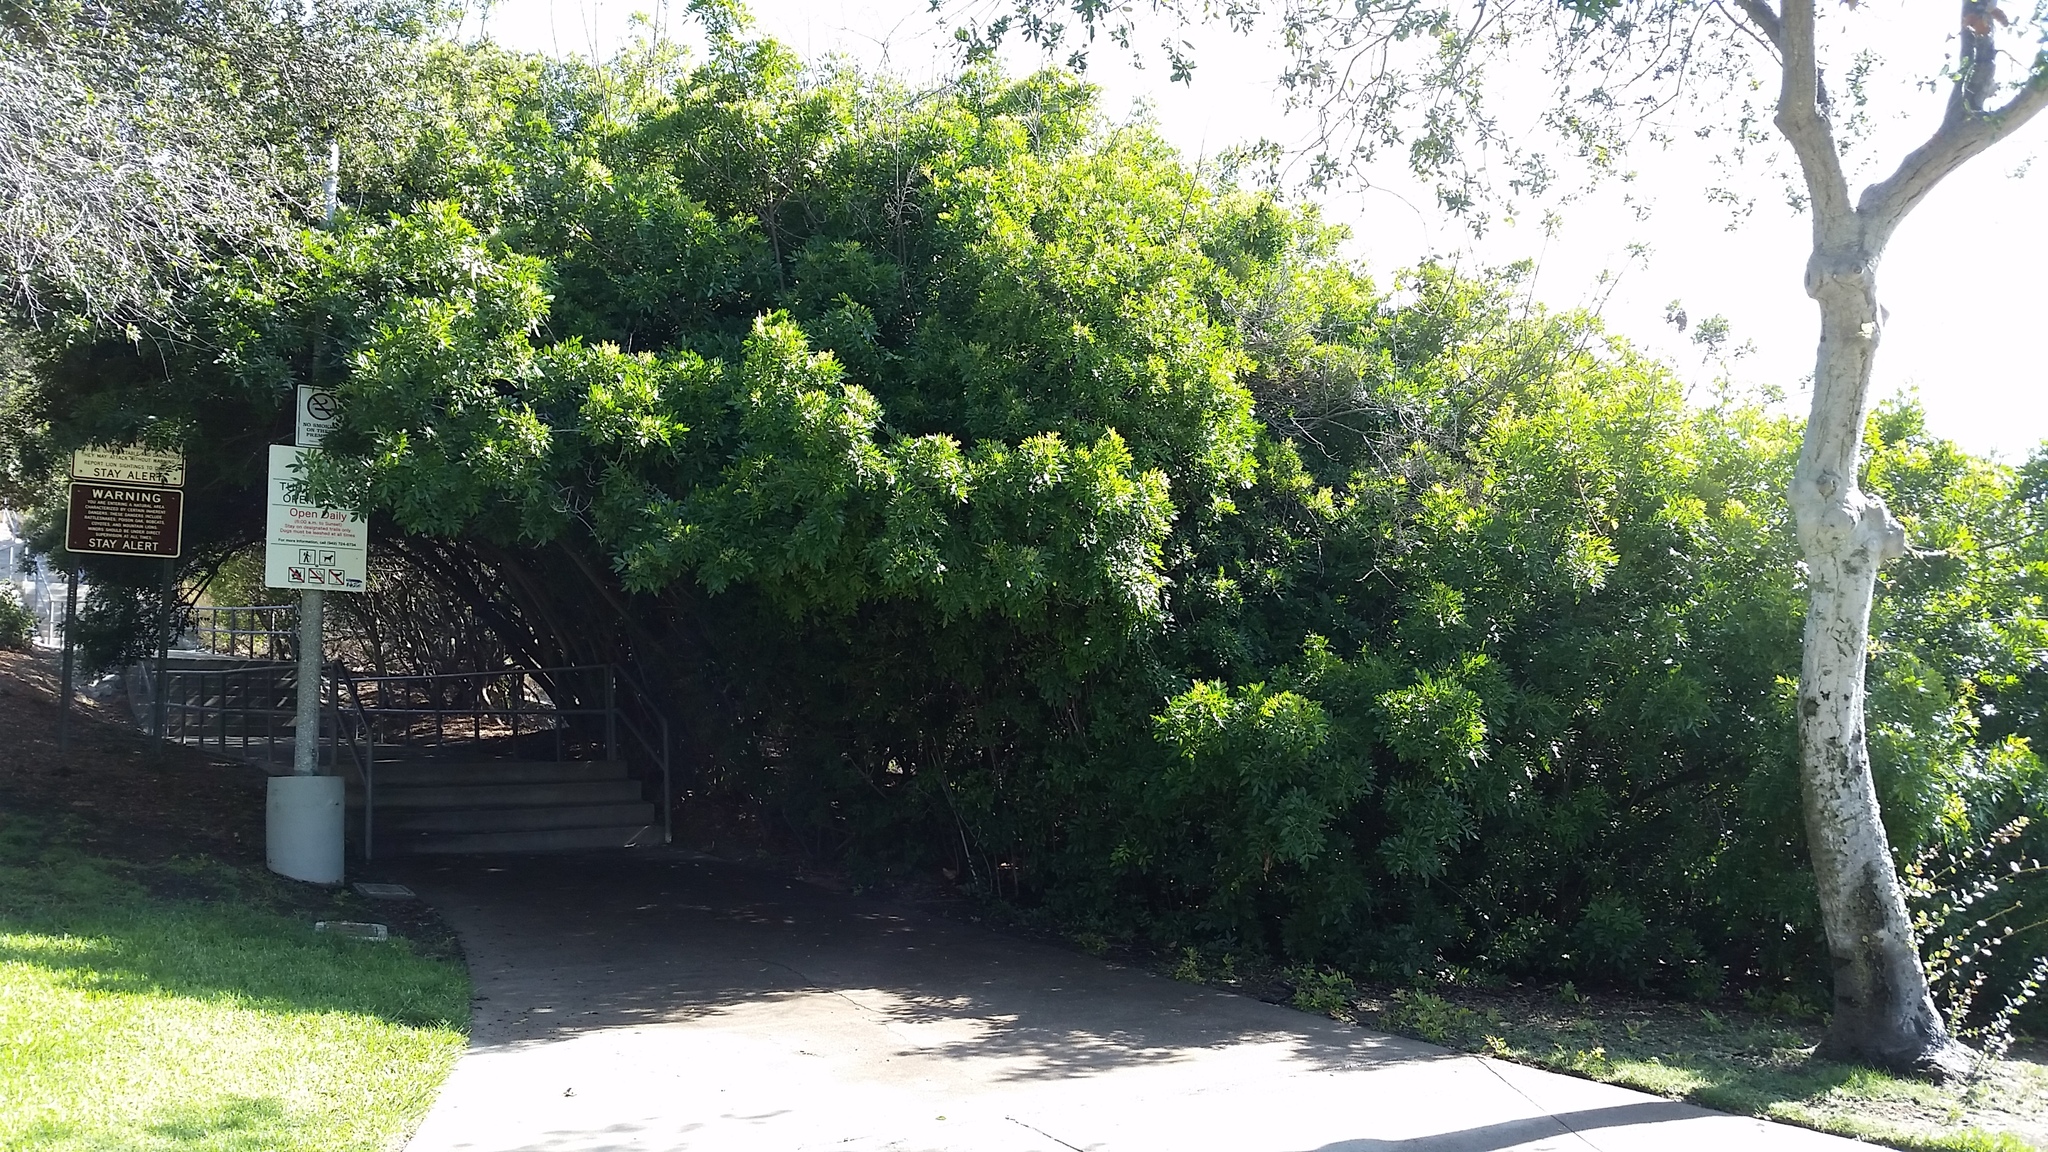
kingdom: Plantae
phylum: Tracheophyta
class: Magnoliopsida
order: Sapindales
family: Anacardiaceae
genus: Schinus
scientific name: Schinus terebinthifolia
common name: Brazilian peppertree
